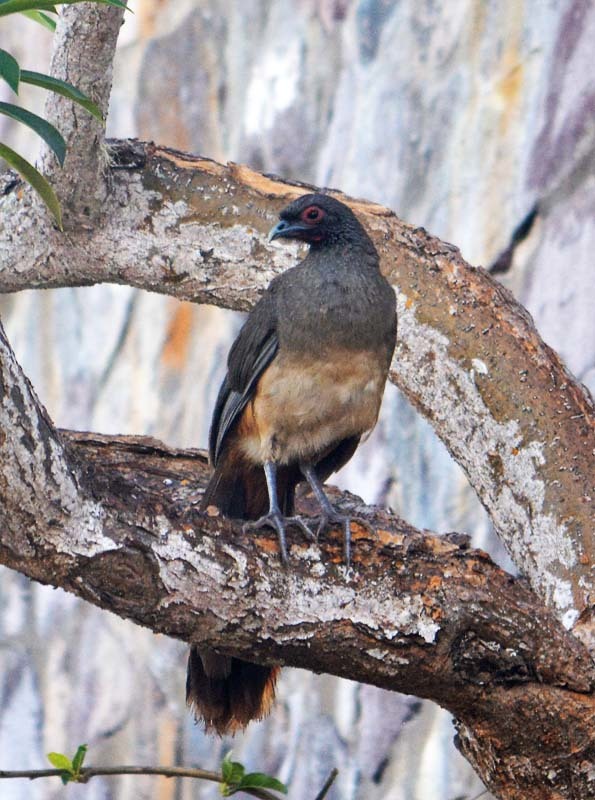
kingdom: Animalia
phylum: Chordata
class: Aves
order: Galliformes
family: Cracidae
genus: Ortalis
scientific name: Ortalis poliocephala
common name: West mexican chachalaca
